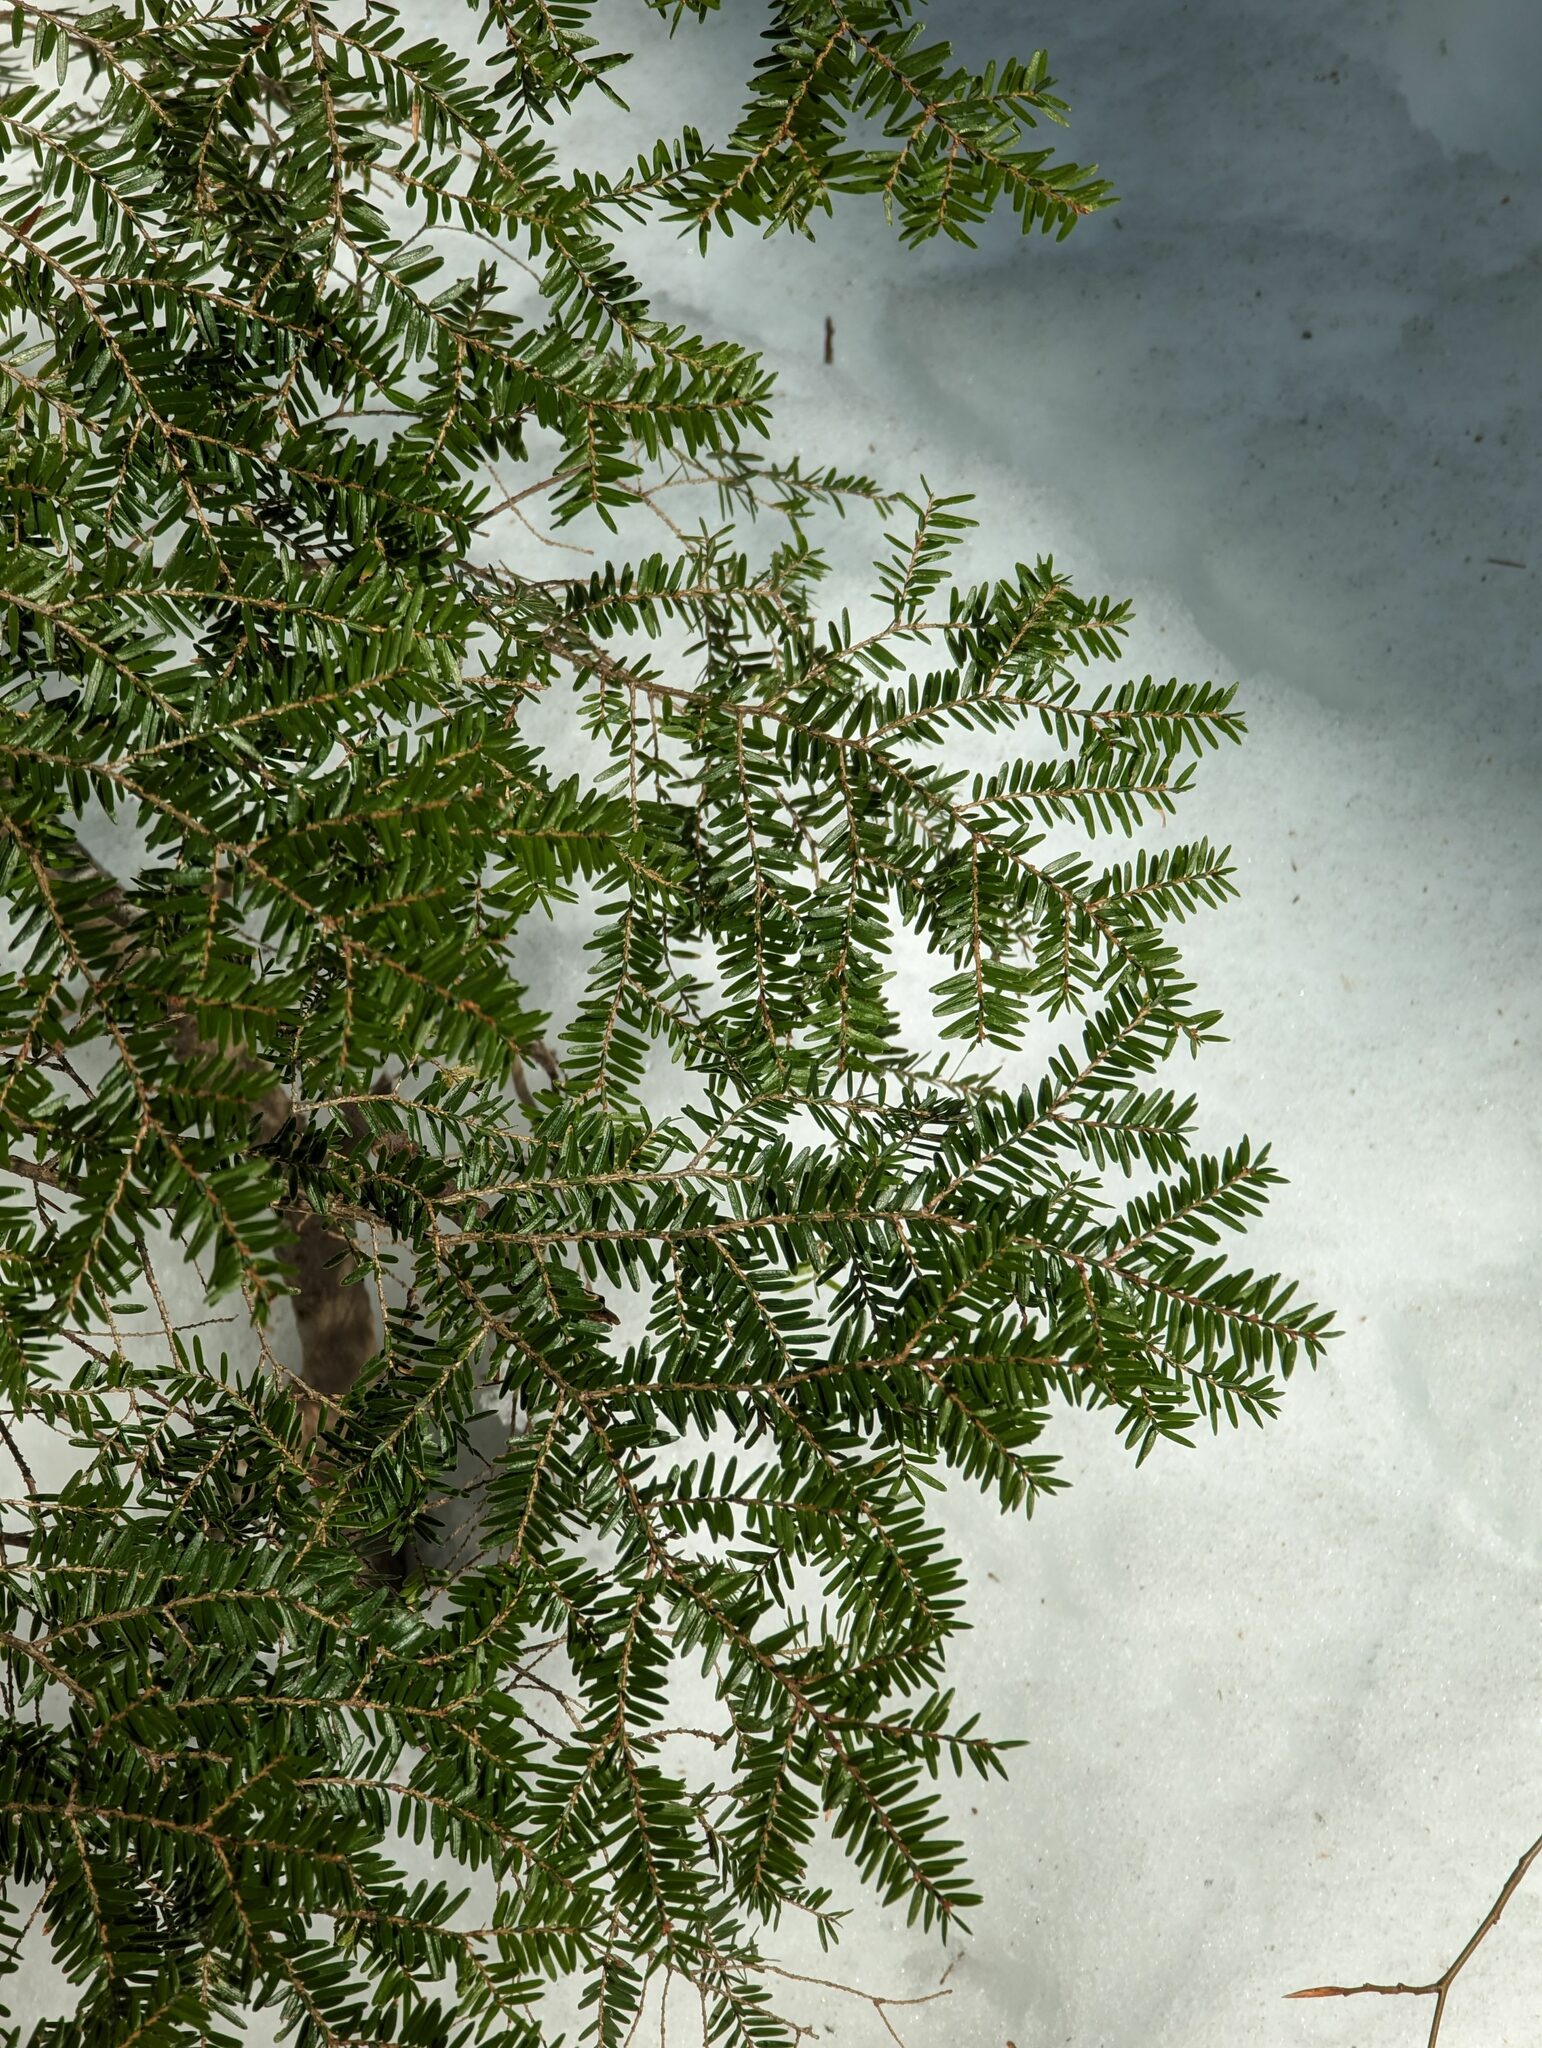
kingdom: Plantae
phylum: Tracheophyta
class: Pinopsida
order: Pinales
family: Pinaceae
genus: Tsuga
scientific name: Tsuga canadensis
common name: Eastern hemlock
